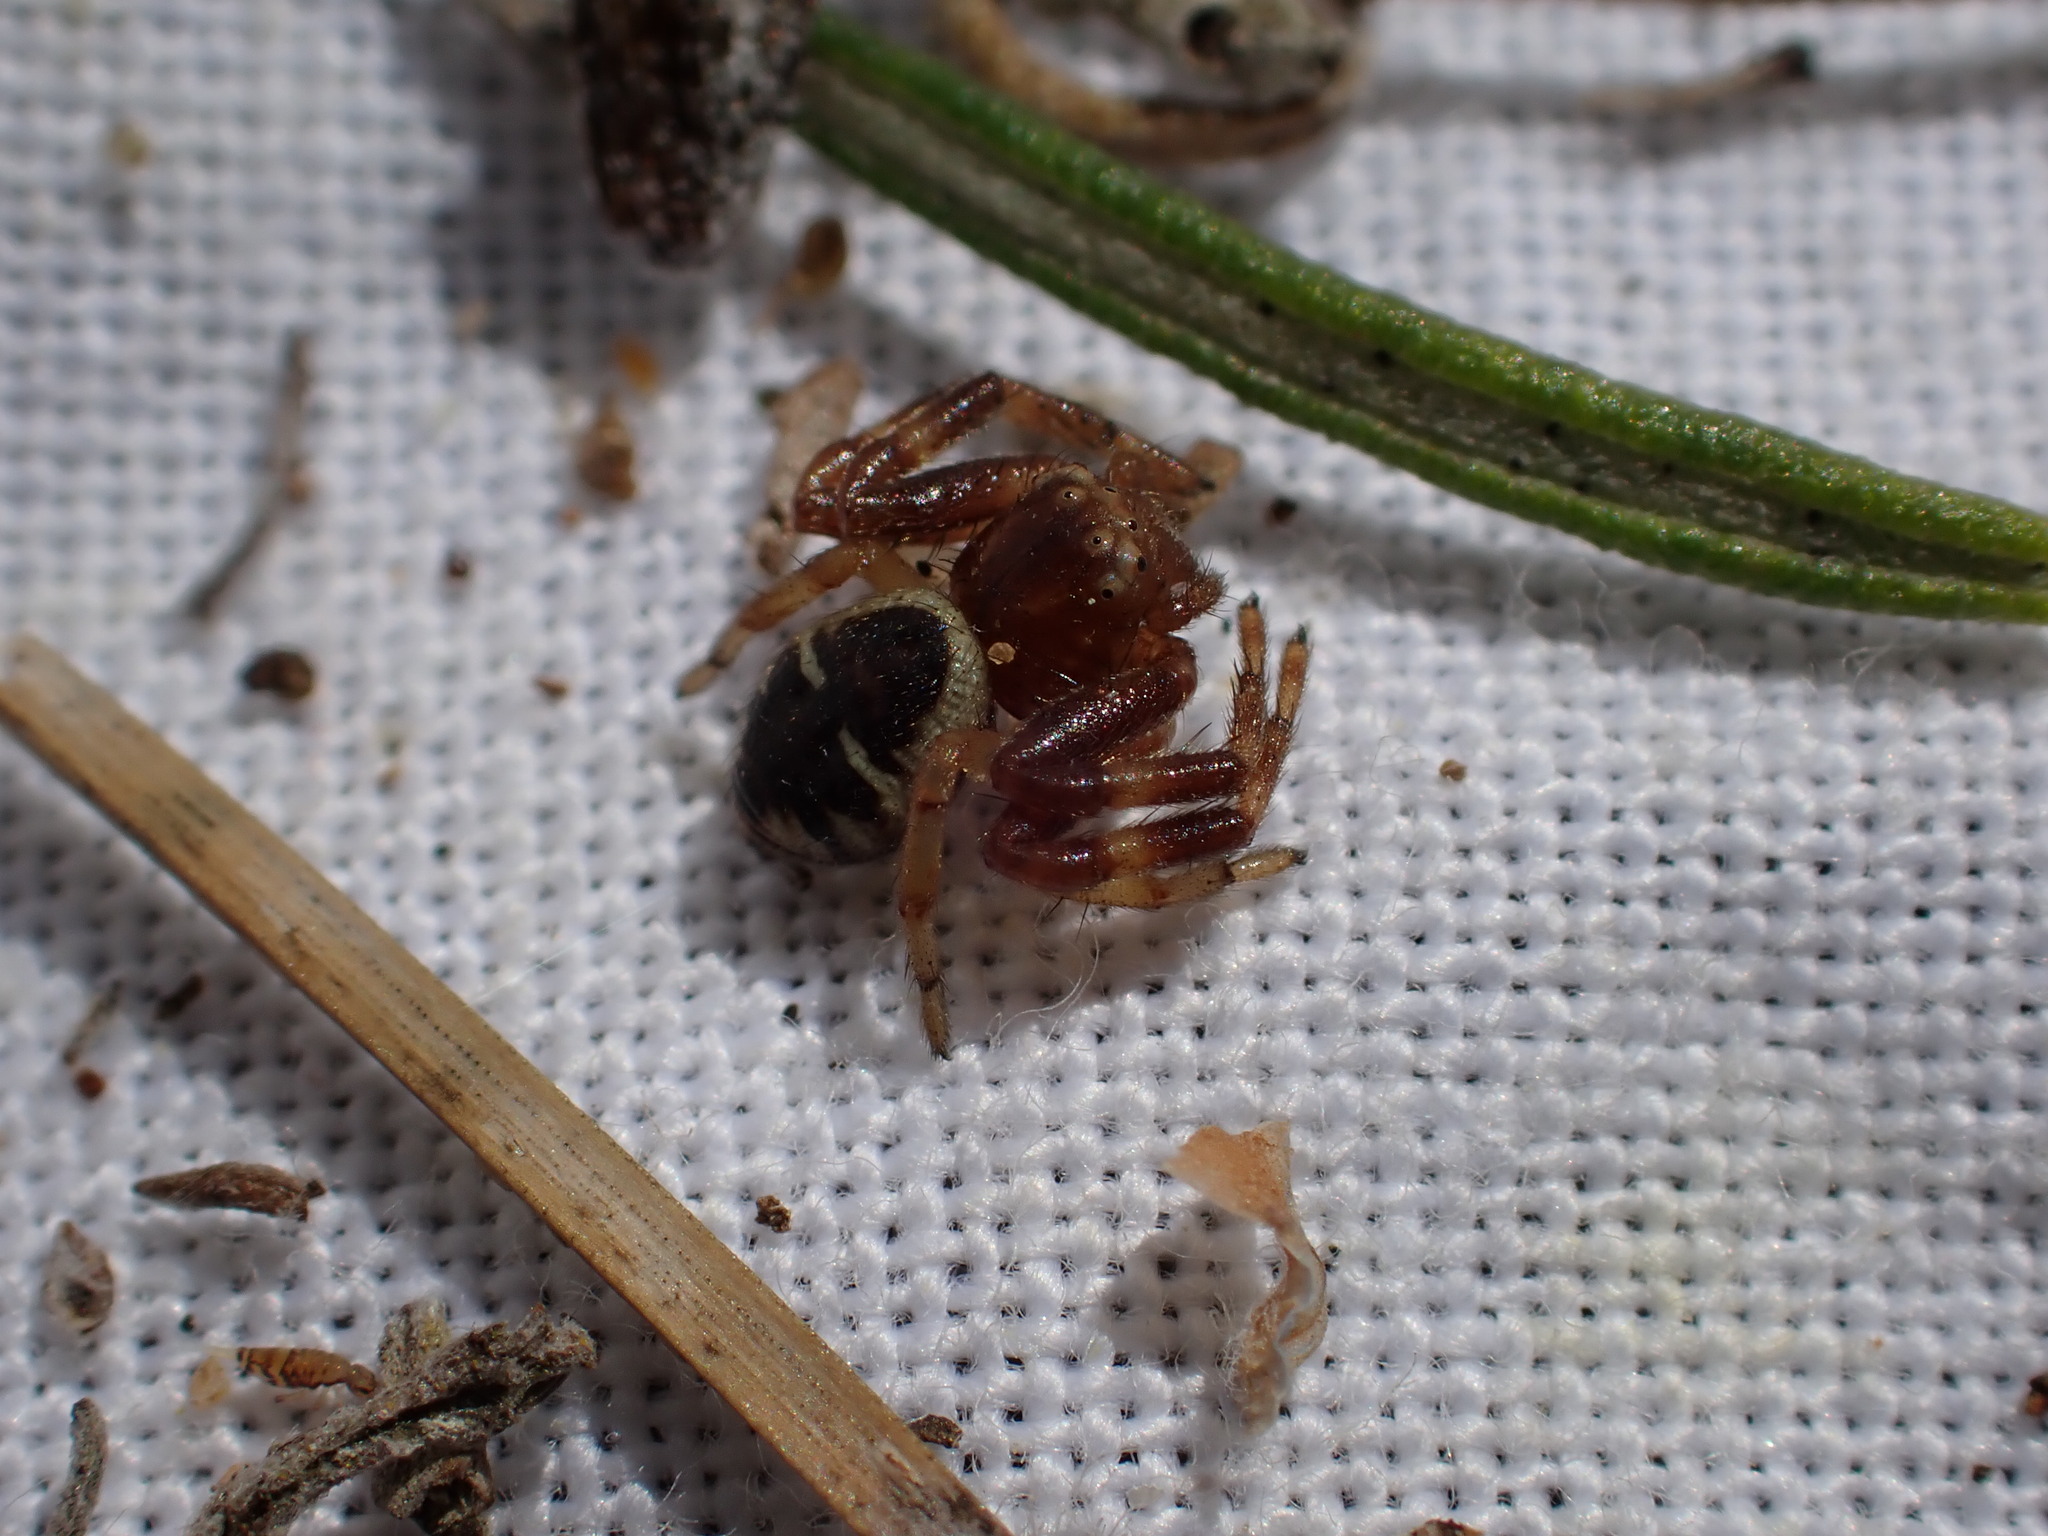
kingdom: Animalia
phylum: Arthropoda
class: Arachnida
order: Araneae
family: Thomisidae
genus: Synema
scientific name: Synema globosum
